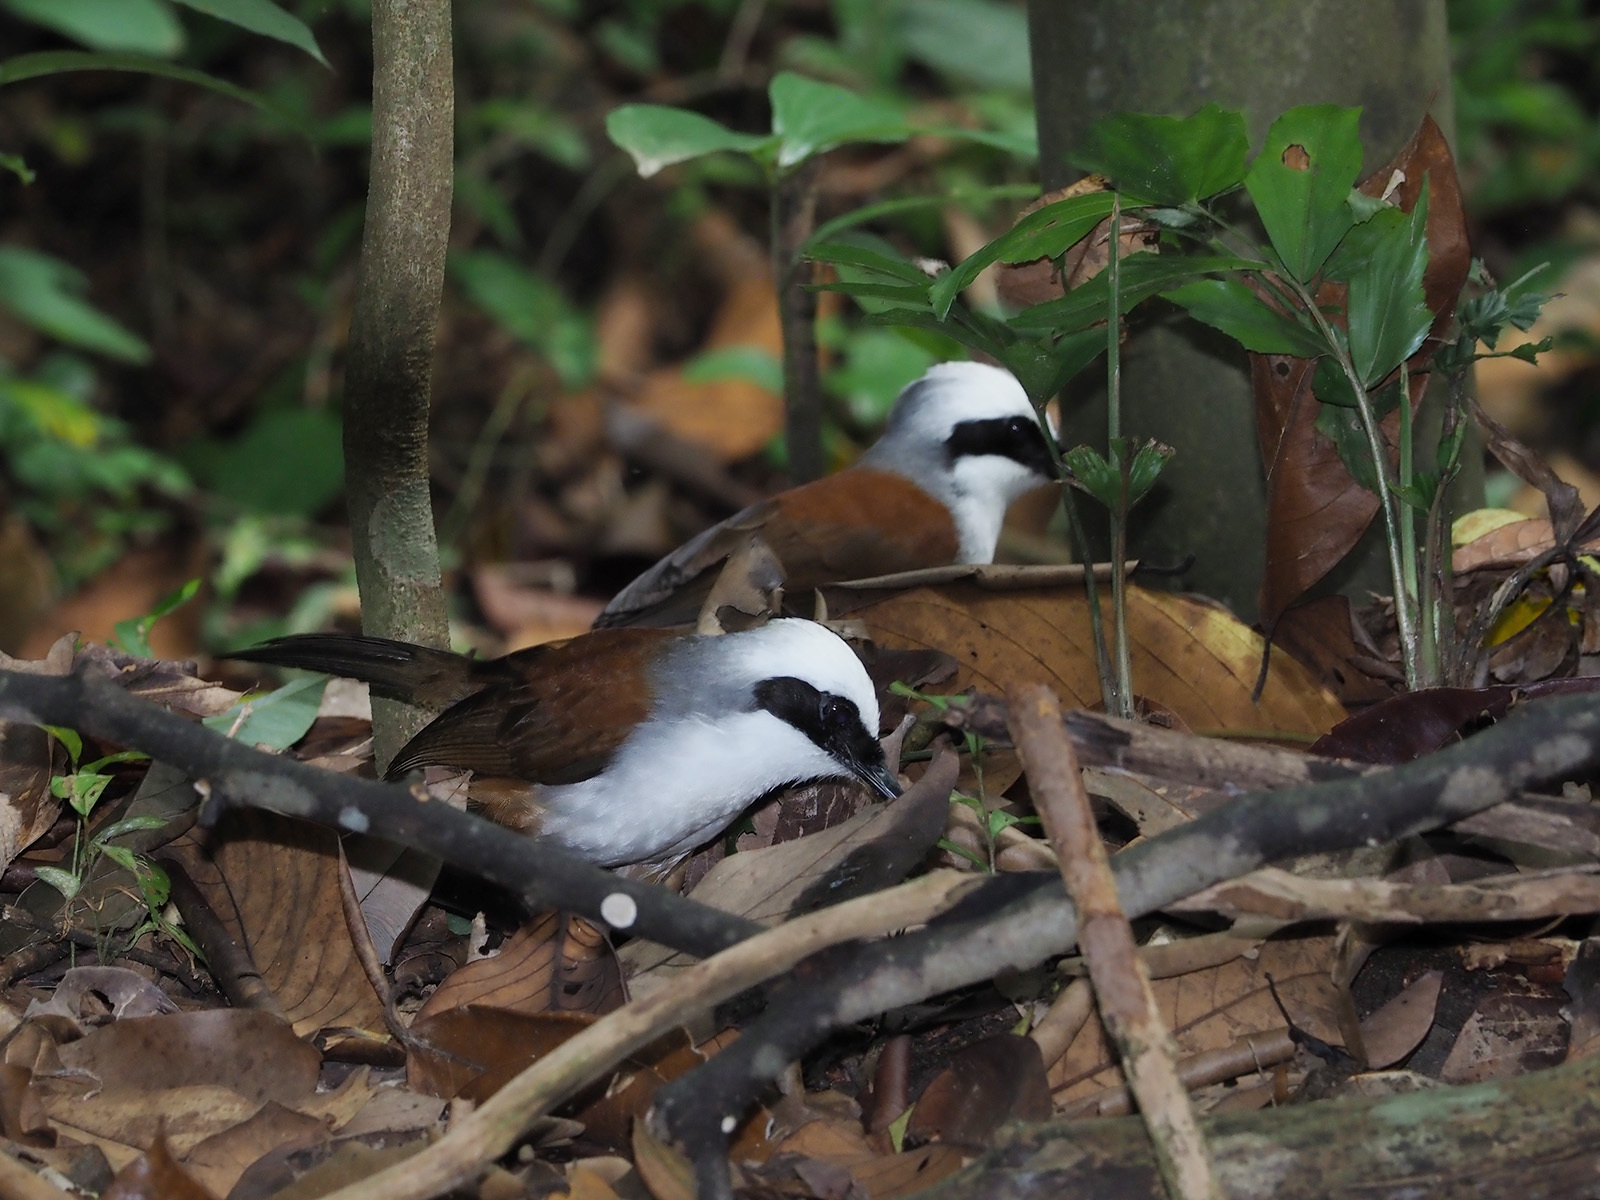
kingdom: Animalia
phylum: Chordata
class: Aves
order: Passeriformes
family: Leiothrichidae
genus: Garrulax
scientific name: Garrulax leucolophus
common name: White-crested laughingthrush
